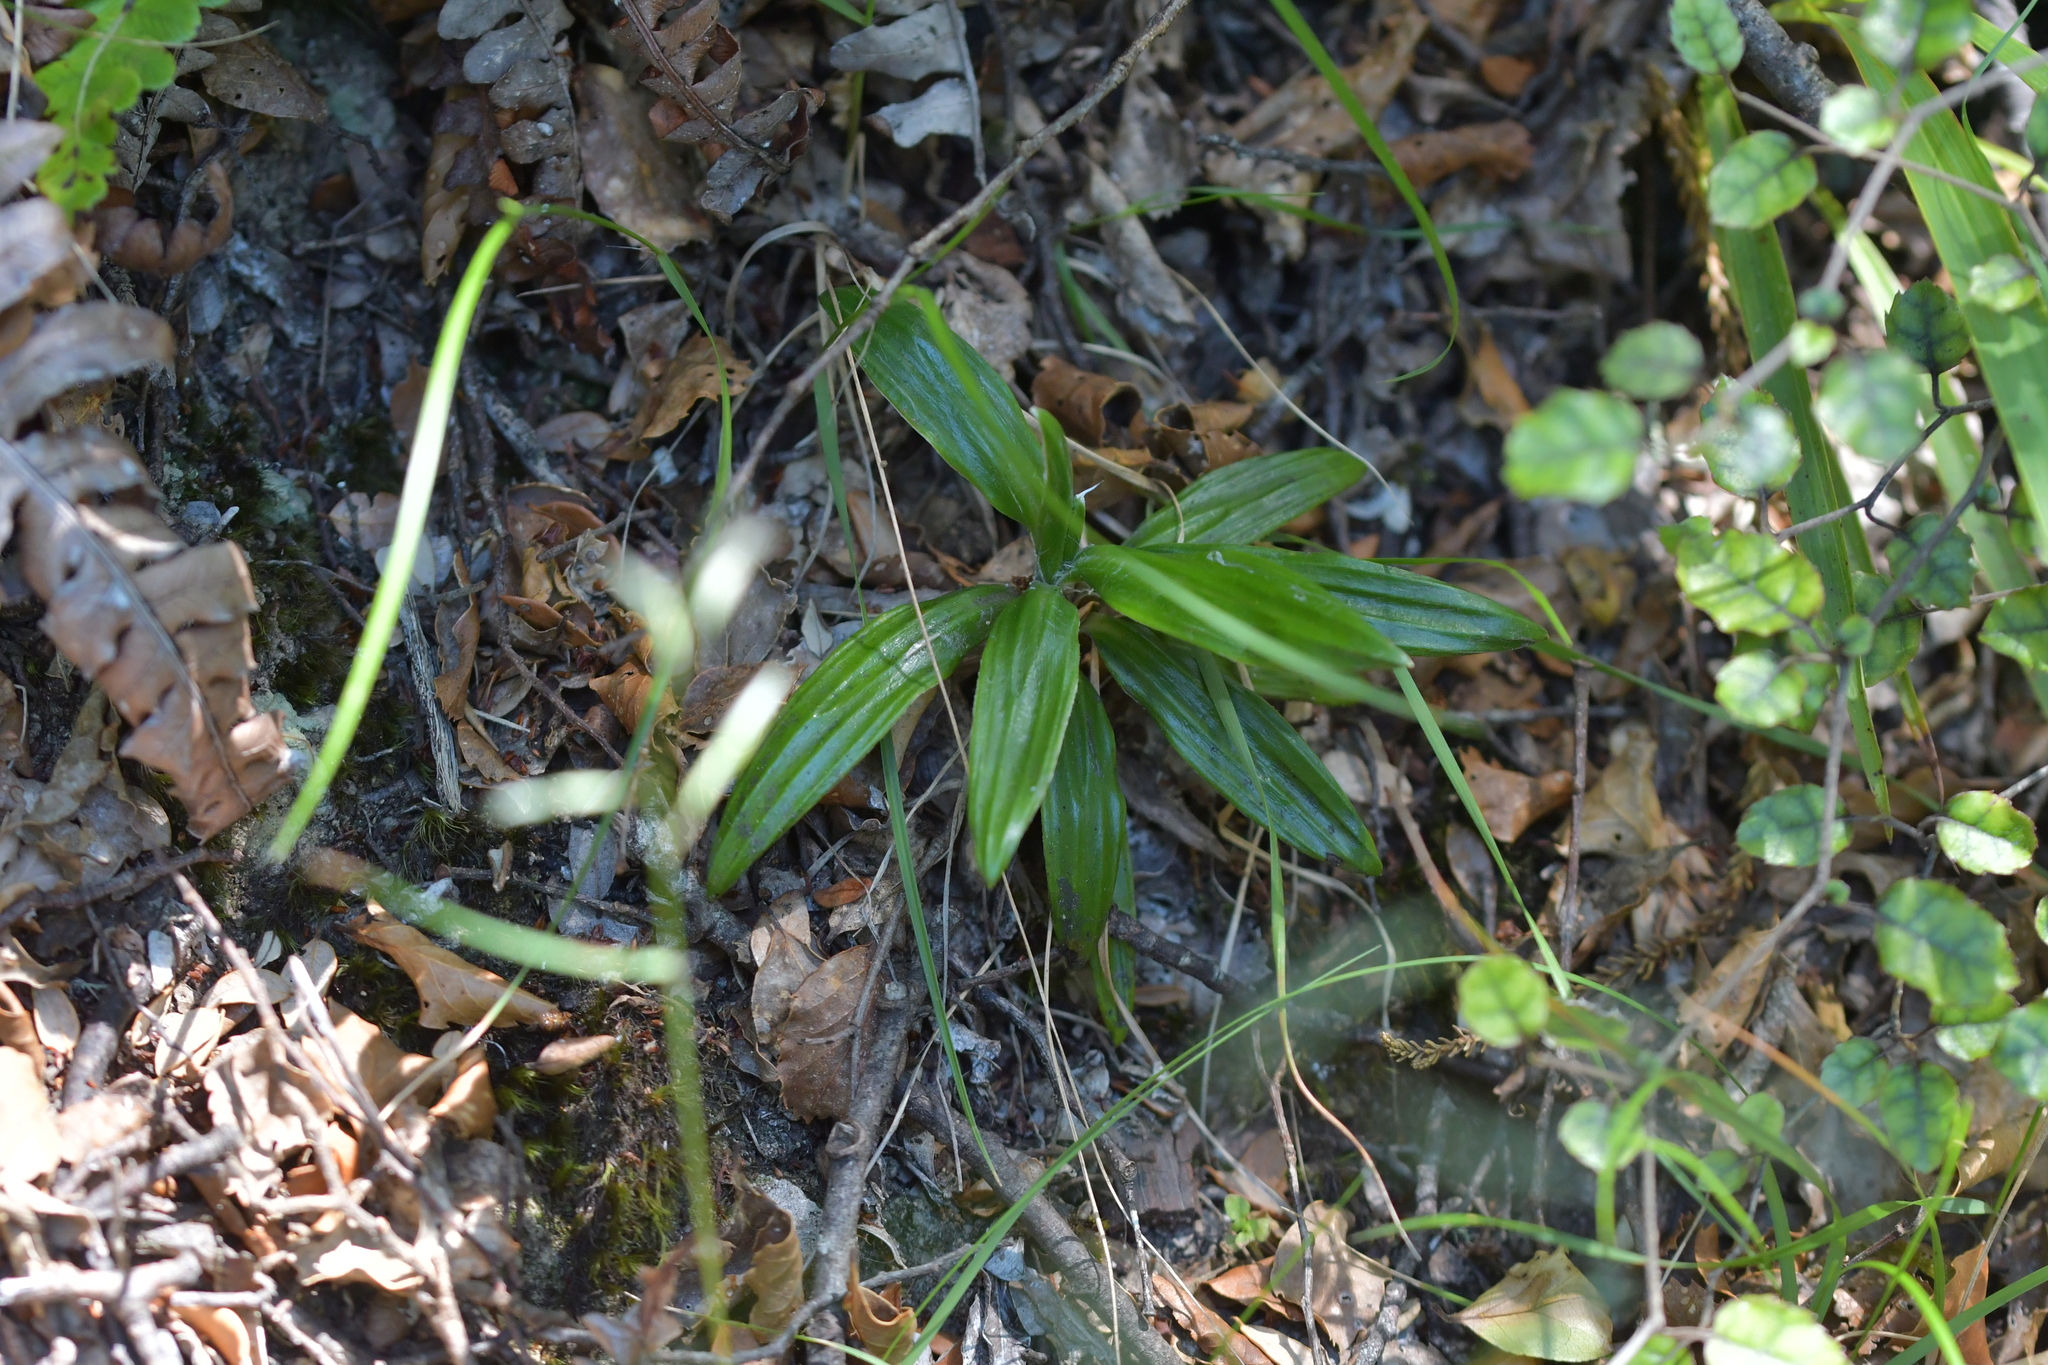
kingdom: Plantae
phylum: Tracheophyta
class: Magnoliopsida
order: Asterales
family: Asteraceae
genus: Celmisia
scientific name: Celmisia spectabilis
